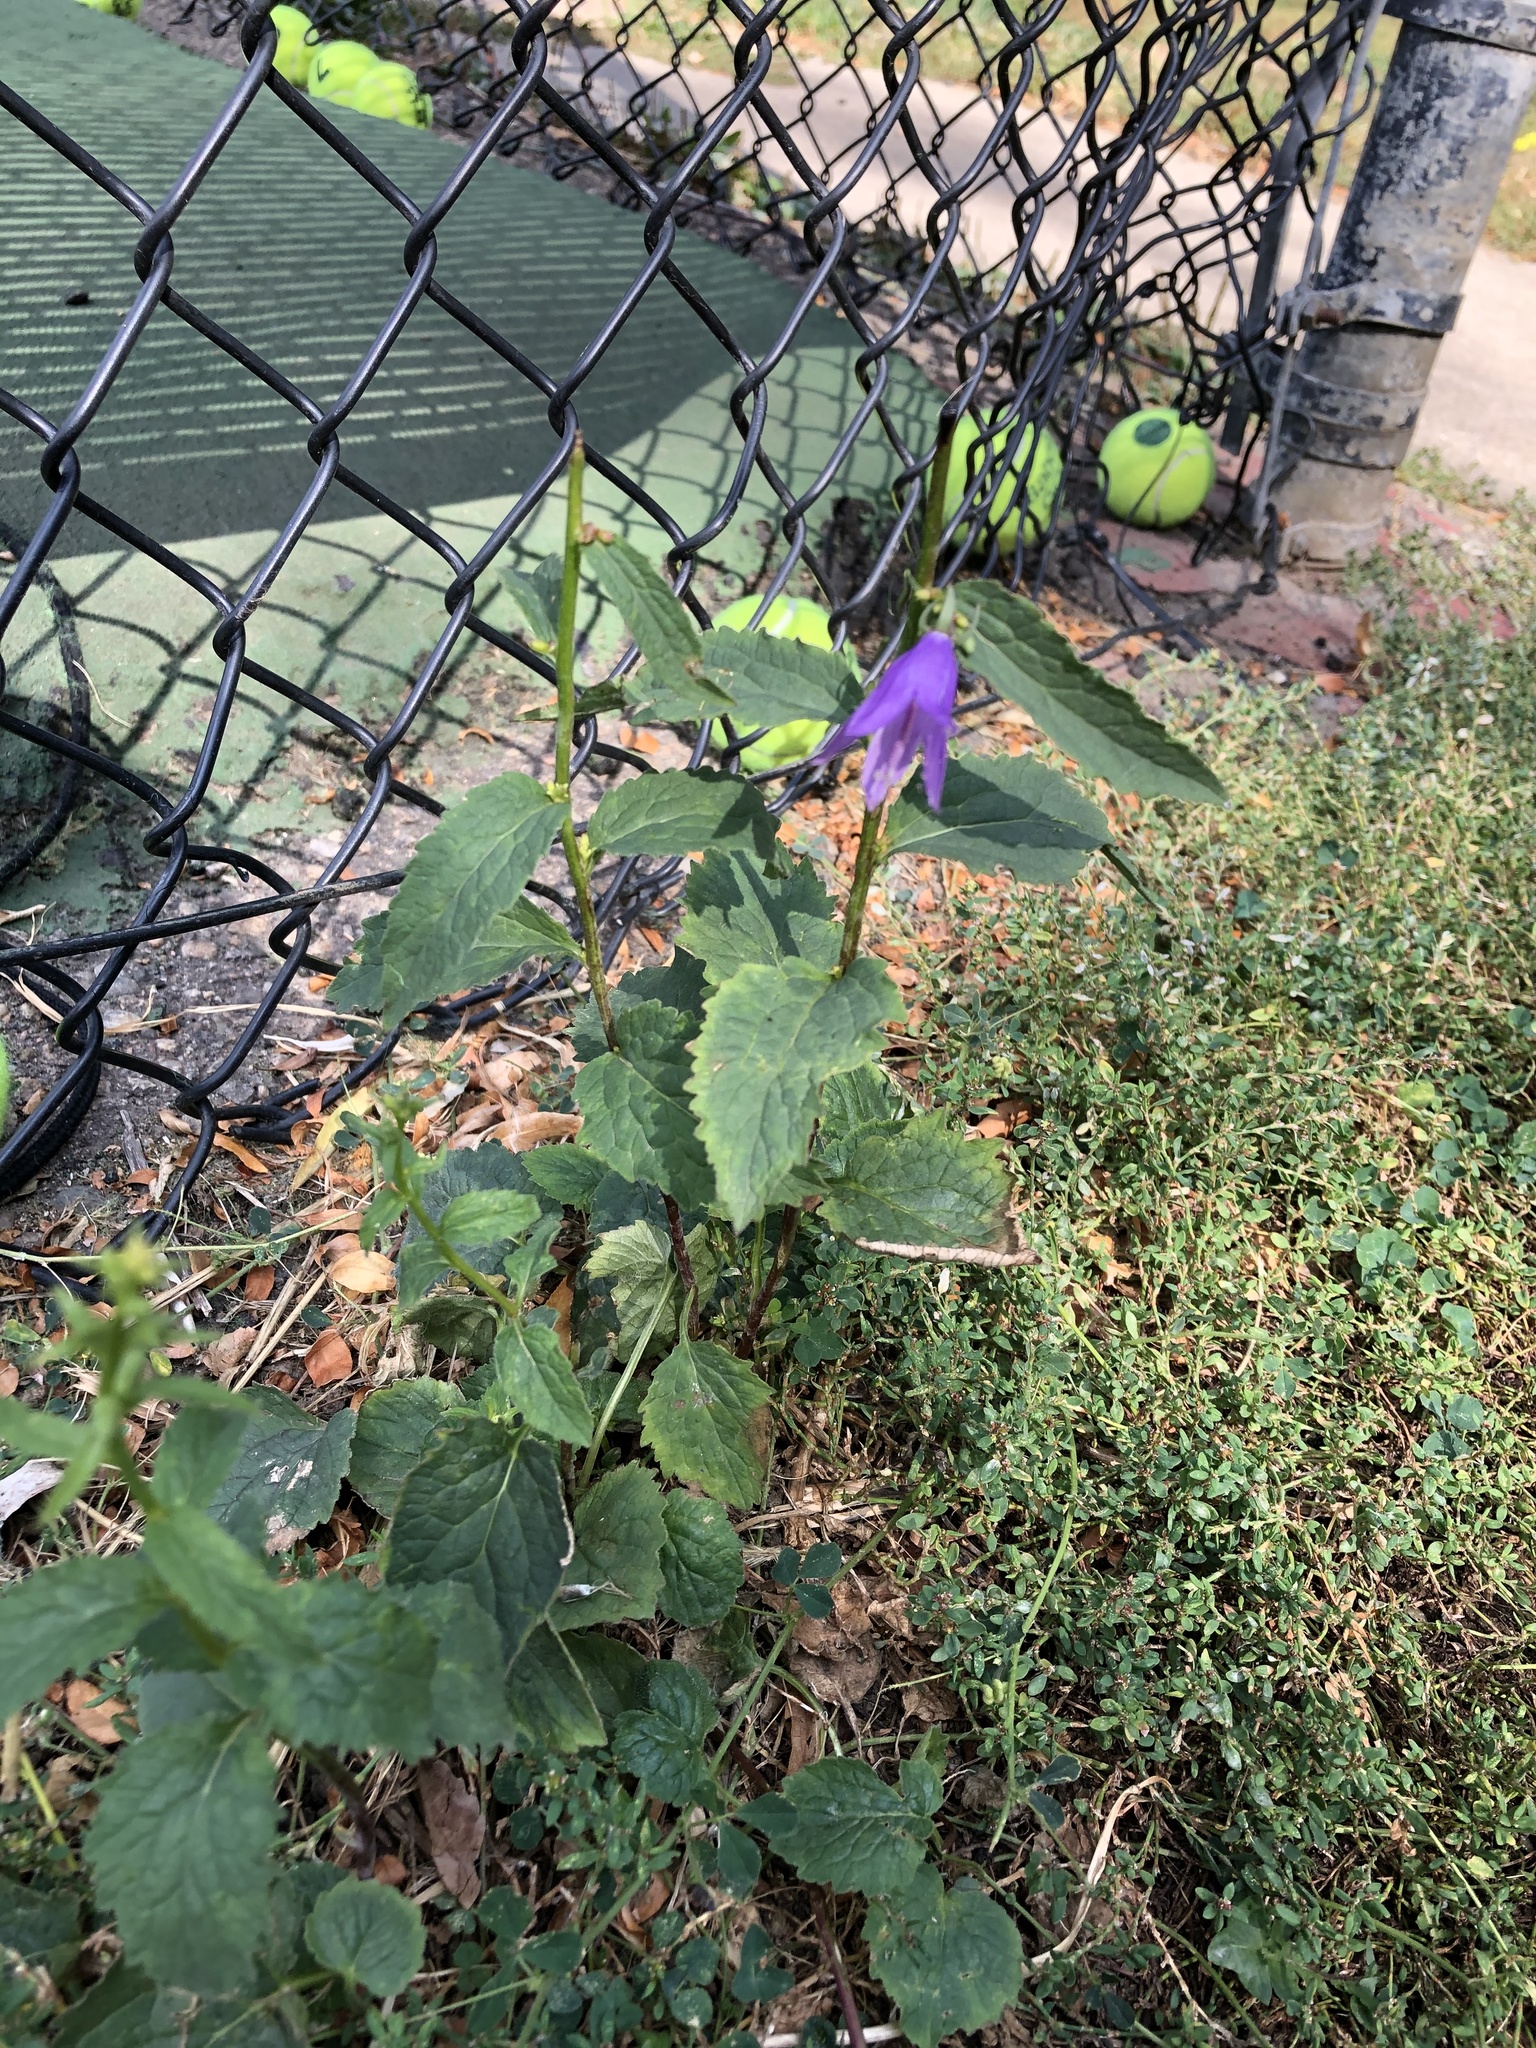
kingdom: Plantae
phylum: Tracheophyta
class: Magnoliopsida
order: Asterales
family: Campanulaceae
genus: Campanula
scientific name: Campanula rapunculoides
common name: Creeping bellflower
